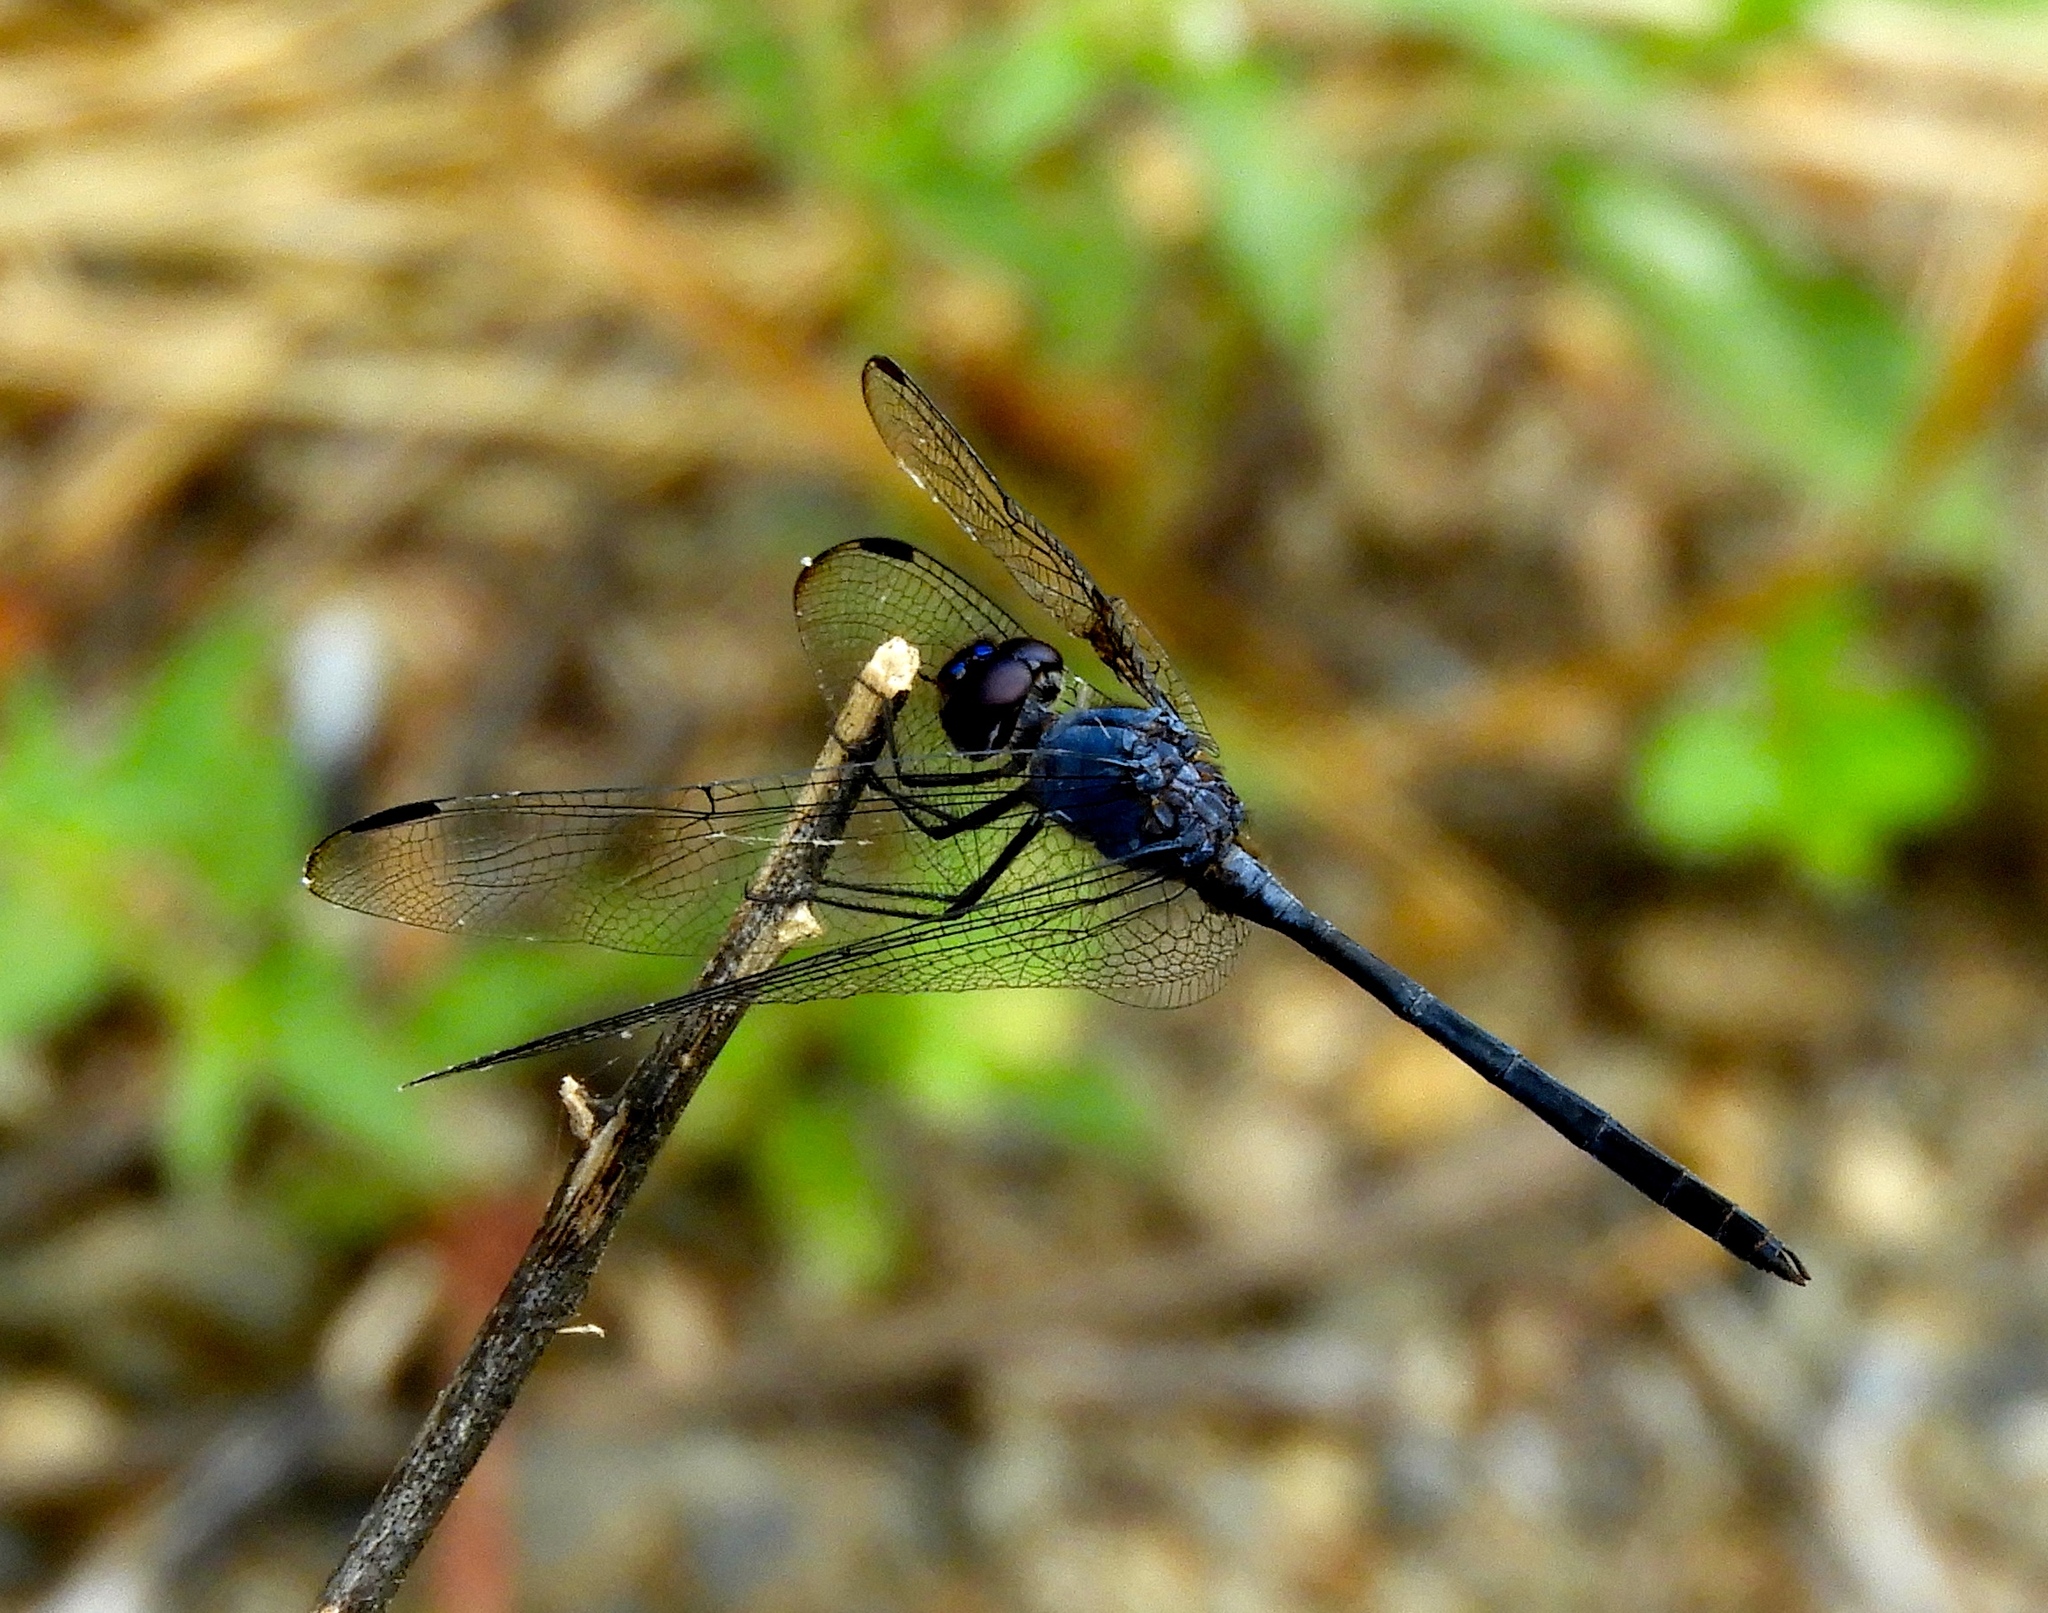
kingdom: Animalia
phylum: Arthropoda
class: Insecta
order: Odonata
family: Libellulidae
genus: Dythemis
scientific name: Dythemis nigrescens
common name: Black setwing
